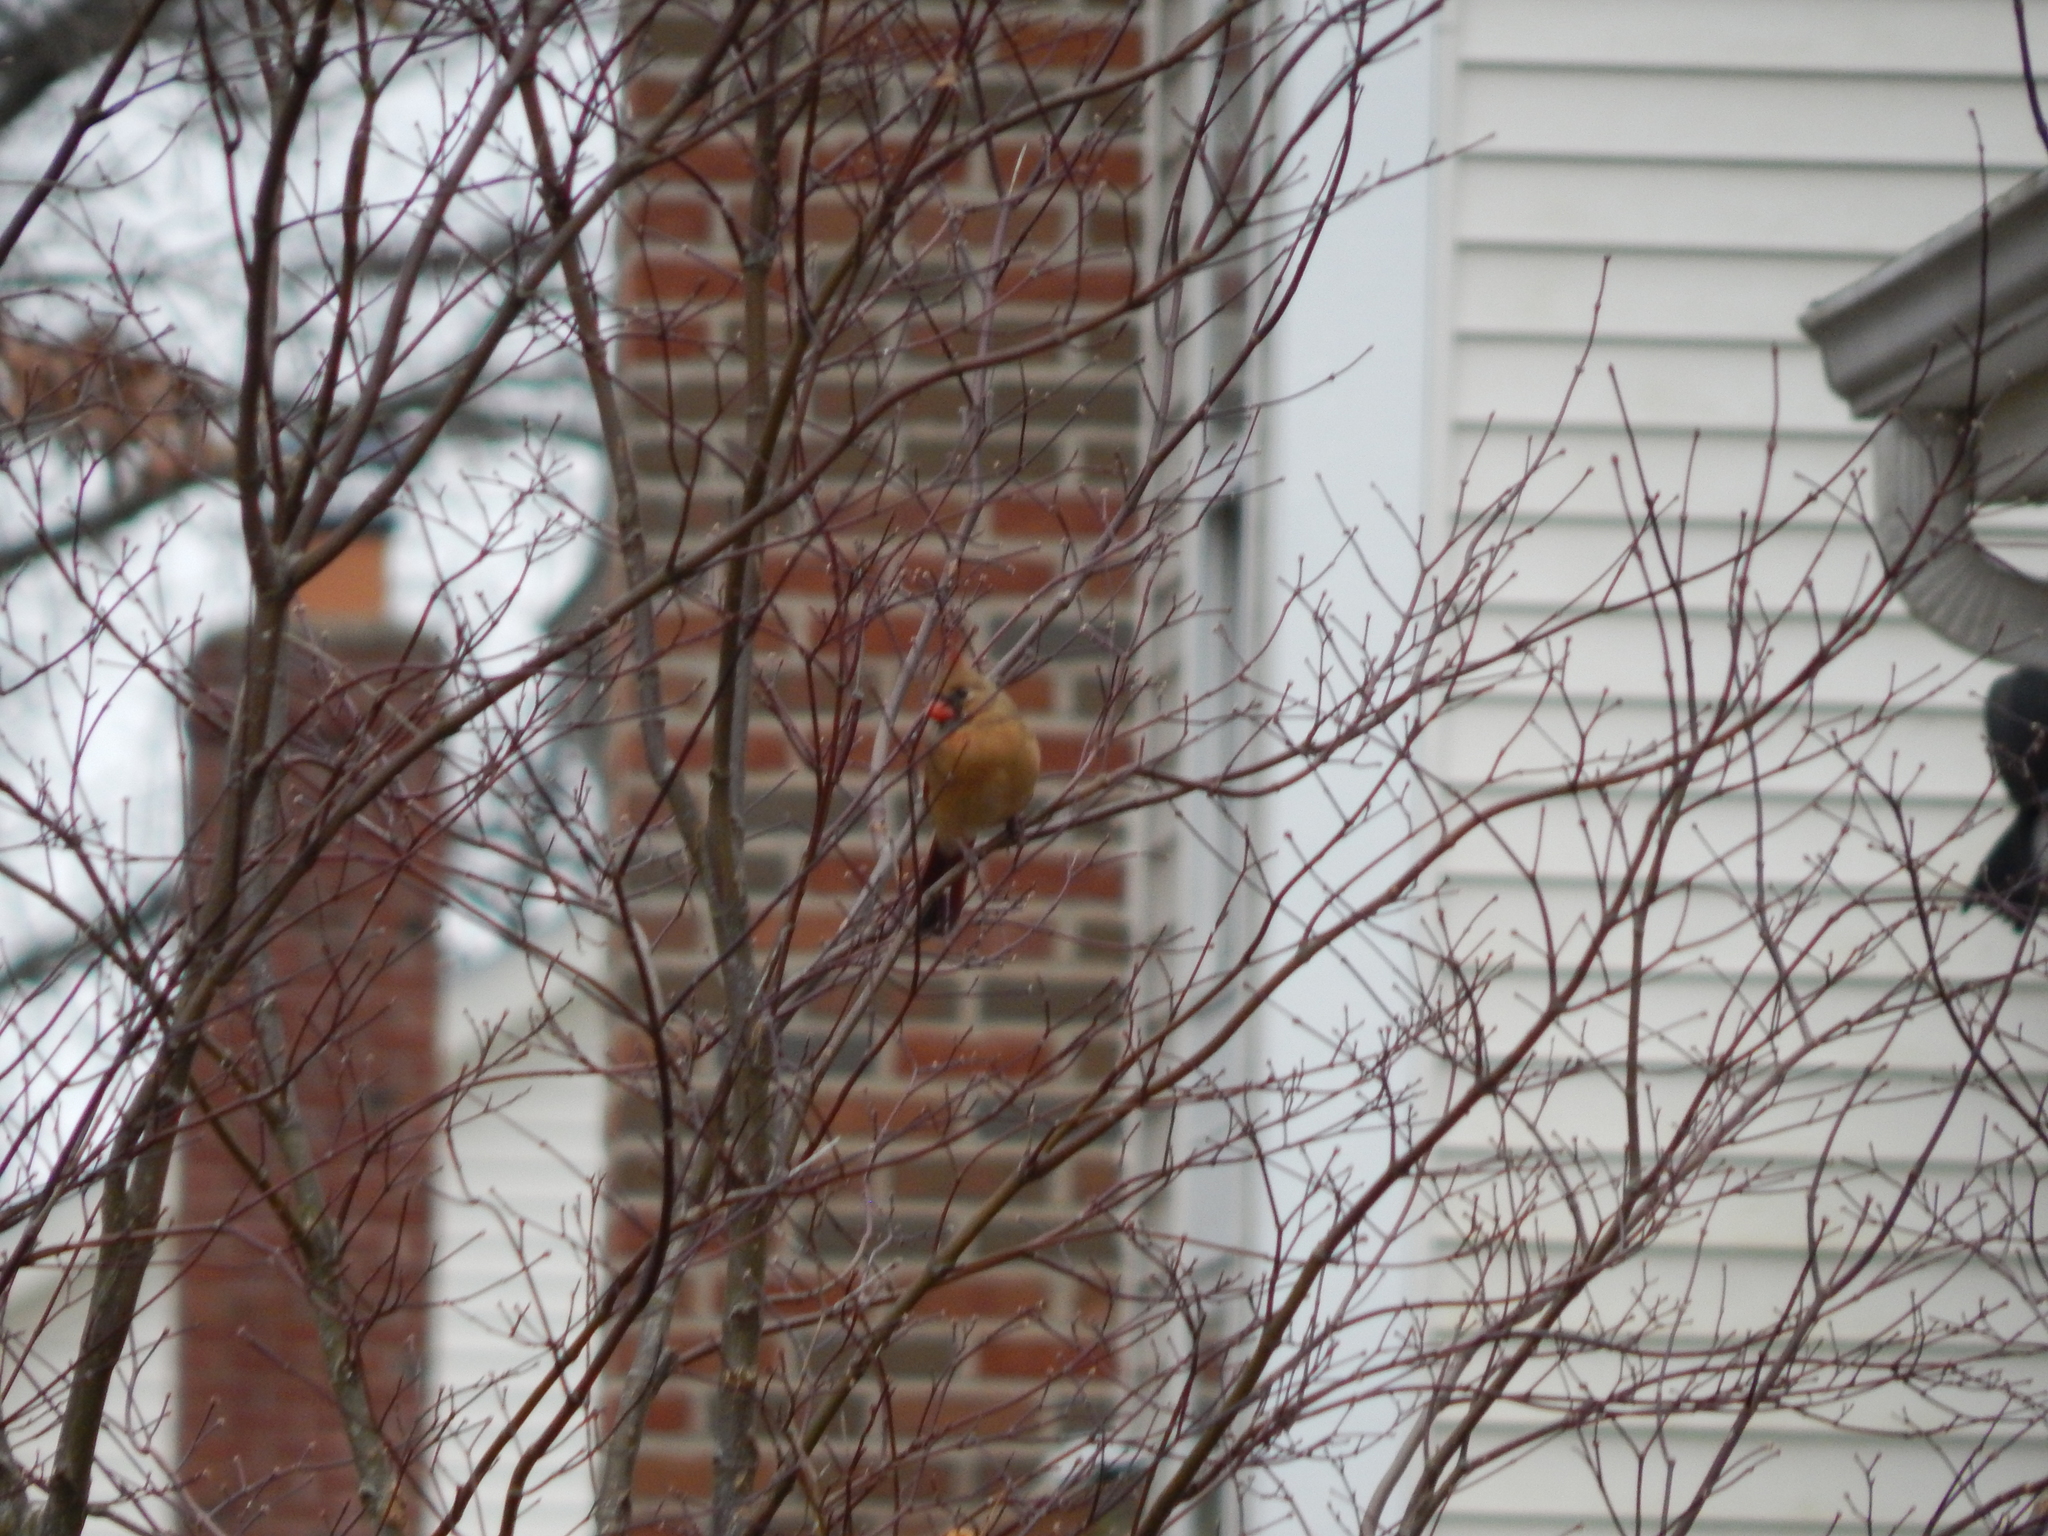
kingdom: Animalia
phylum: Chordata
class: Aves
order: Passeriformes
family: Cardinalidae
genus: Cardinalis
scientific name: Cardinalis cardinalis
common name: Northern cardinal
